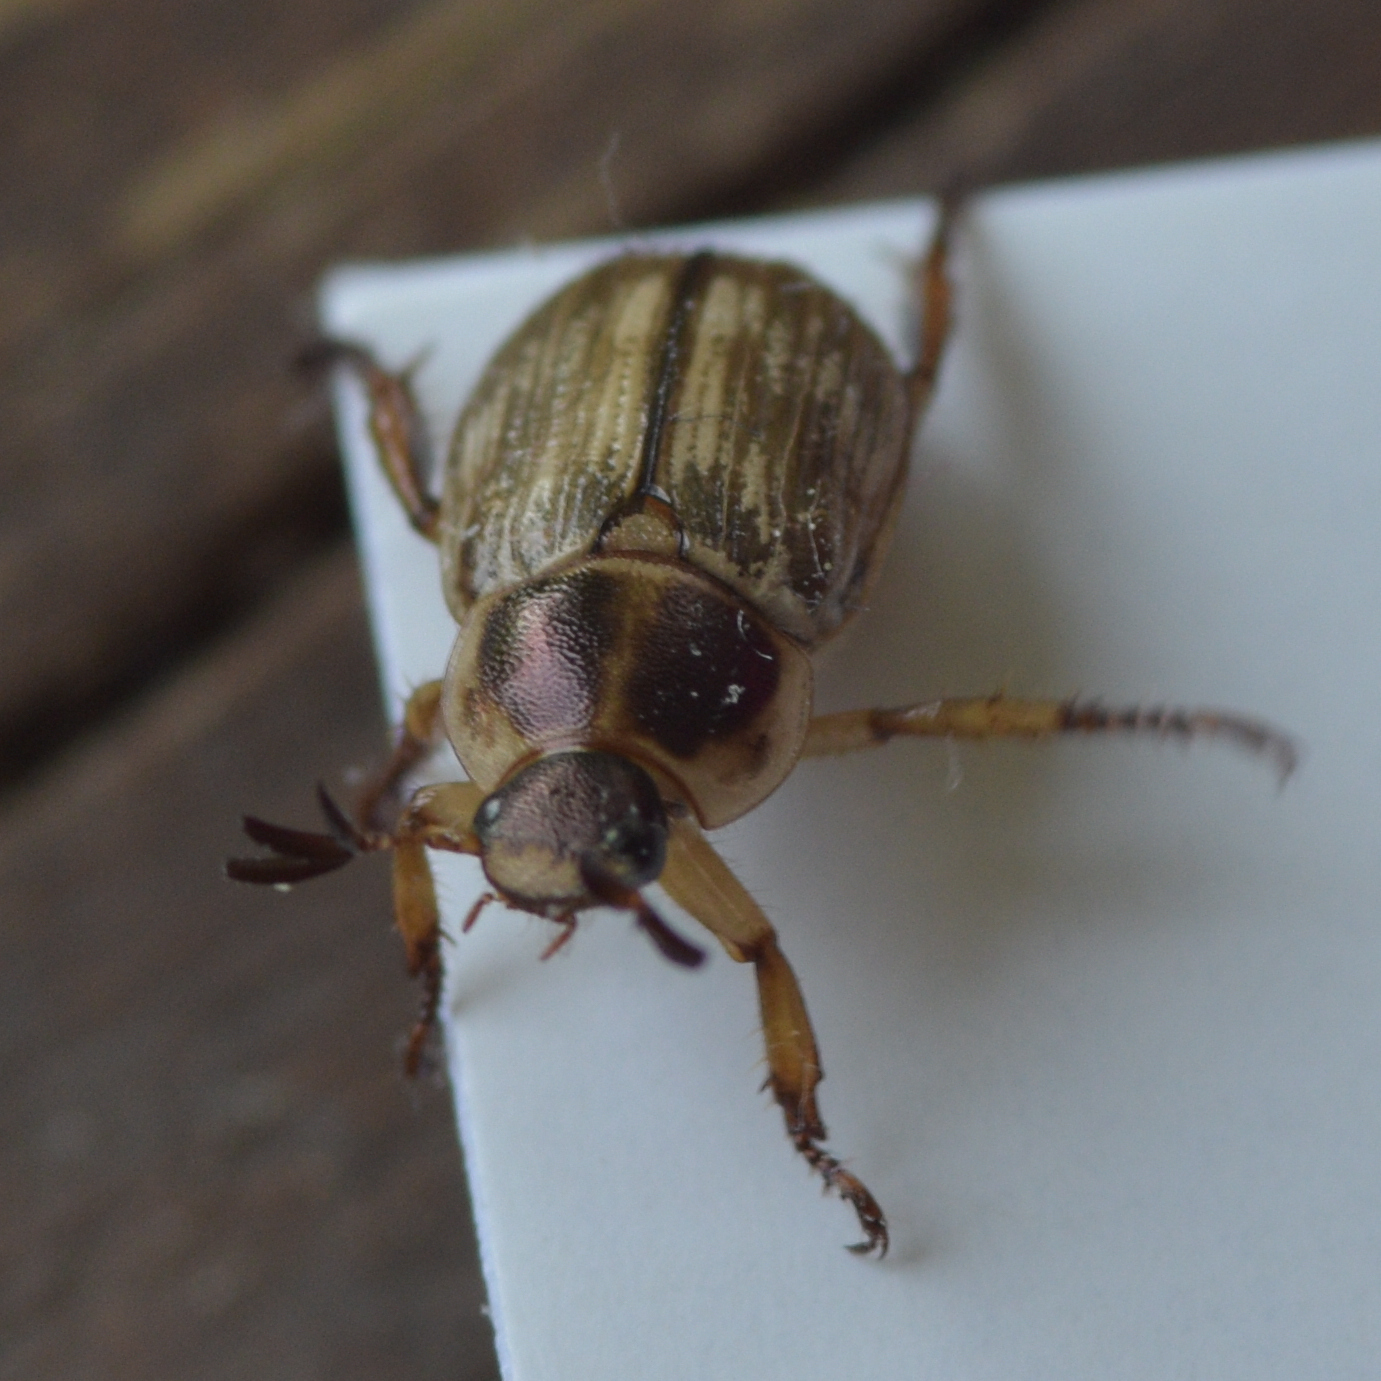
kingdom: Animalia
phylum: Arthropoda
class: Insecta
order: Coleoptera
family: Scarabaeidae
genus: Exomala
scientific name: Exomala orientalis
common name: Oriental beetle
